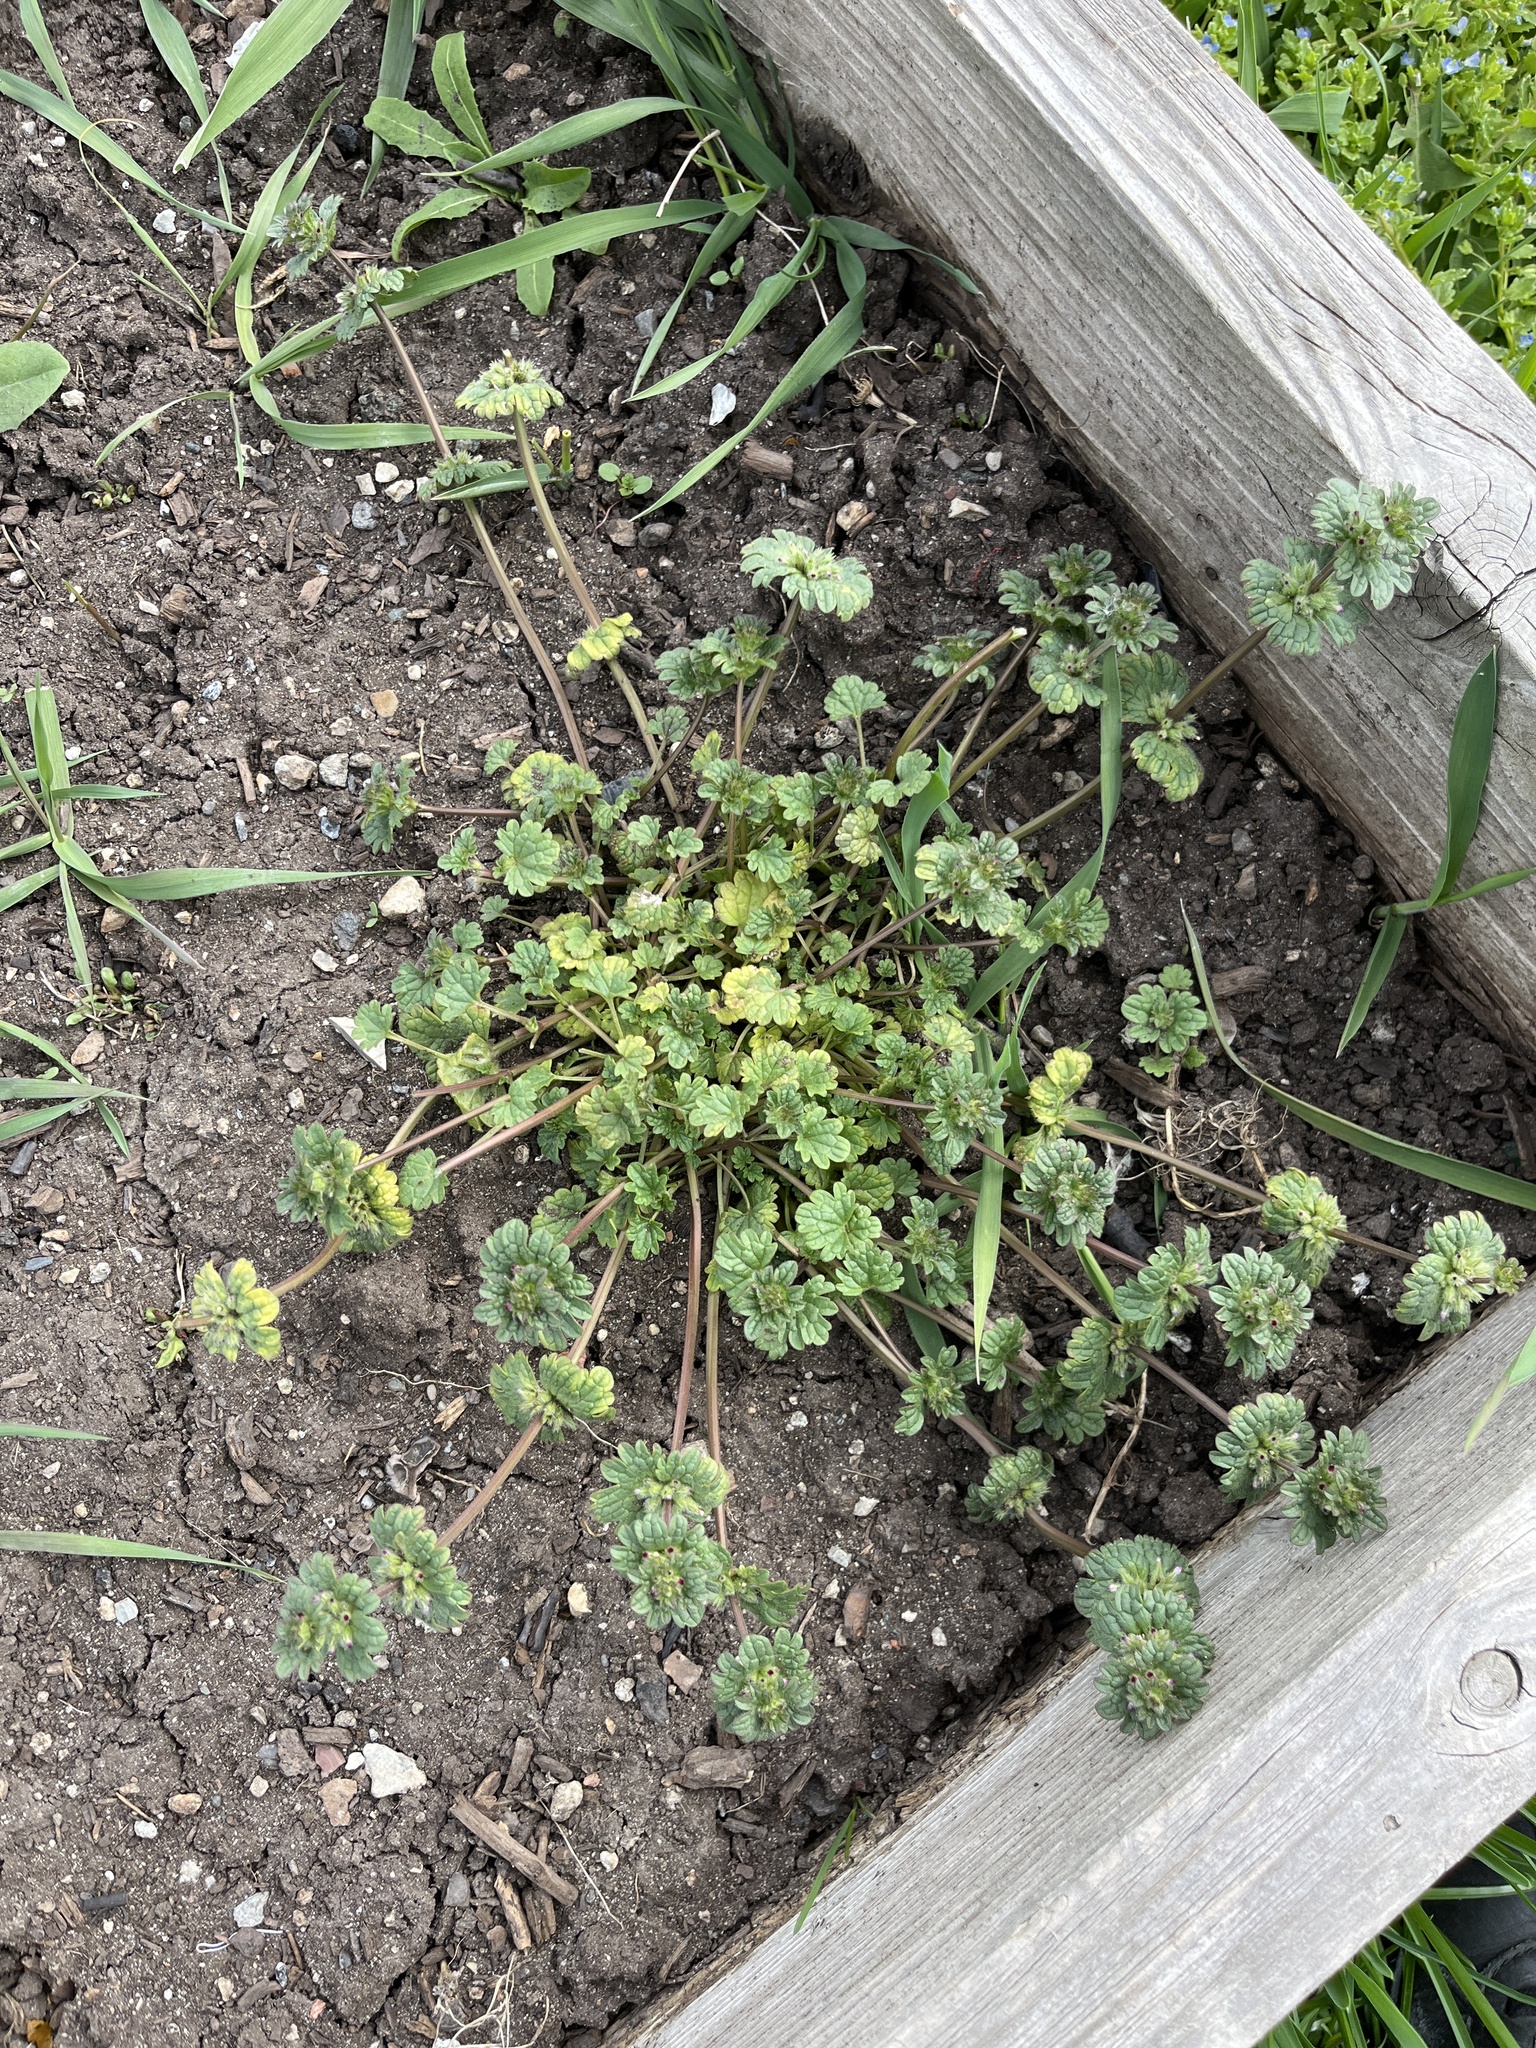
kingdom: Plantae
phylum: Tracheophyta
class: Magnoliopsida
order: Lamiales
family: Lamiaceae
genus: Lamium
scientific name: Lamium amplexicaule
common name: Henbit dead-nettle
